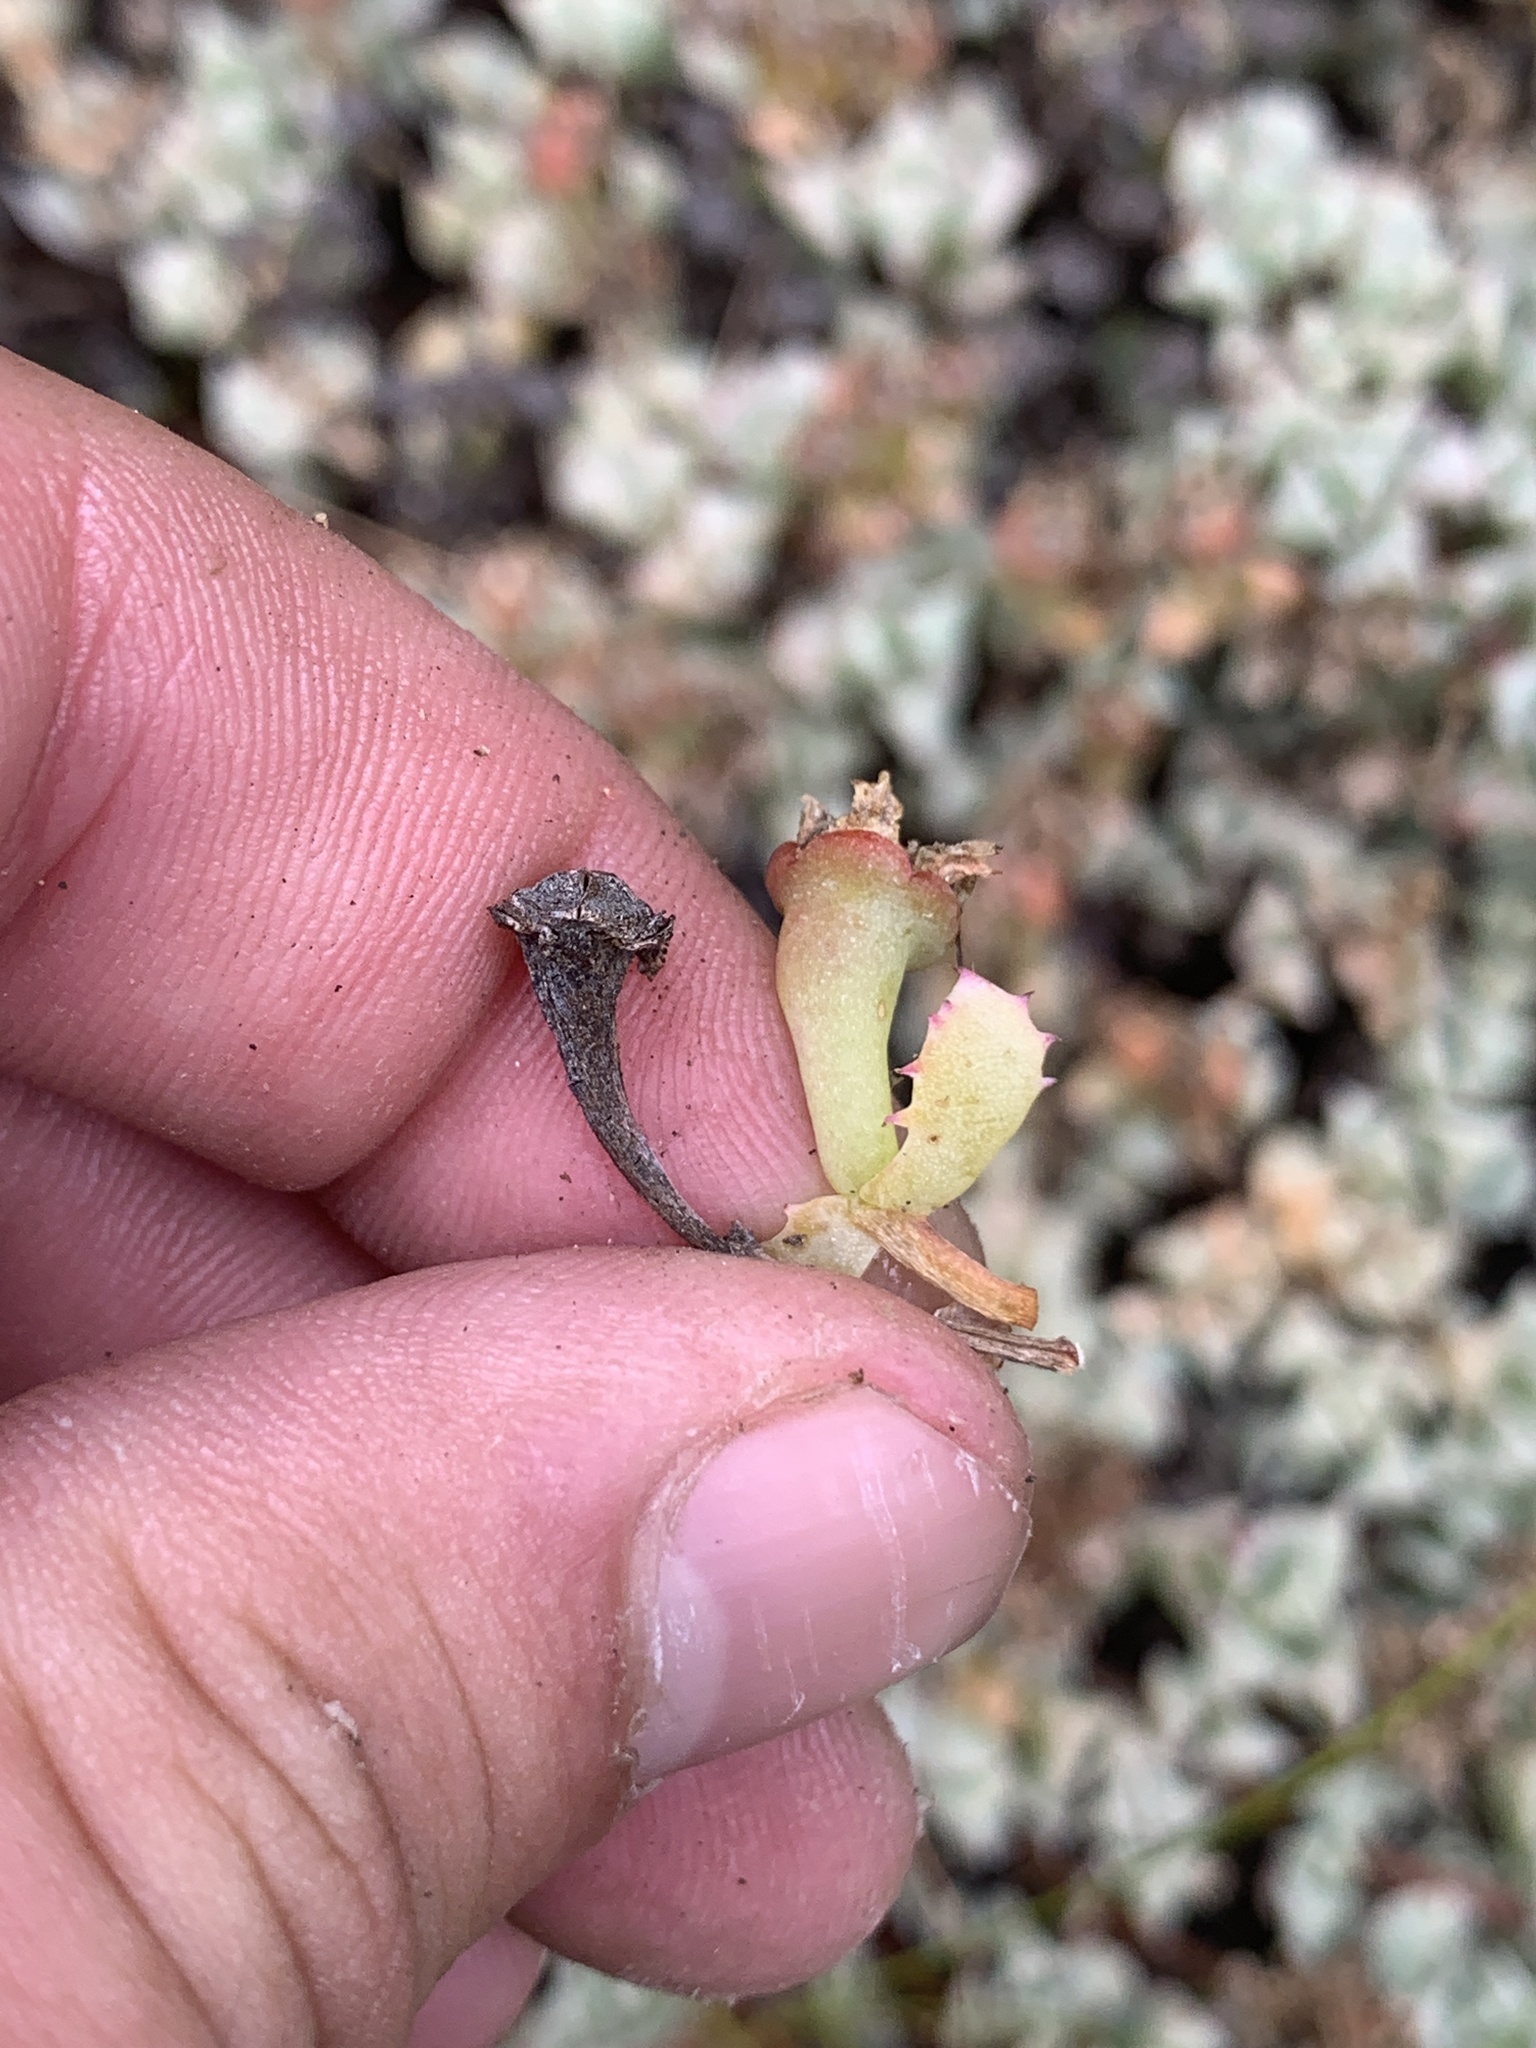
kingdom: Plantae
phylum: Tracheophyta
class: Magnoliopsida
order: Caryophyllales
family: Aizoaceae
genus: Oscularia
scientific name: Oscularia deltoides
